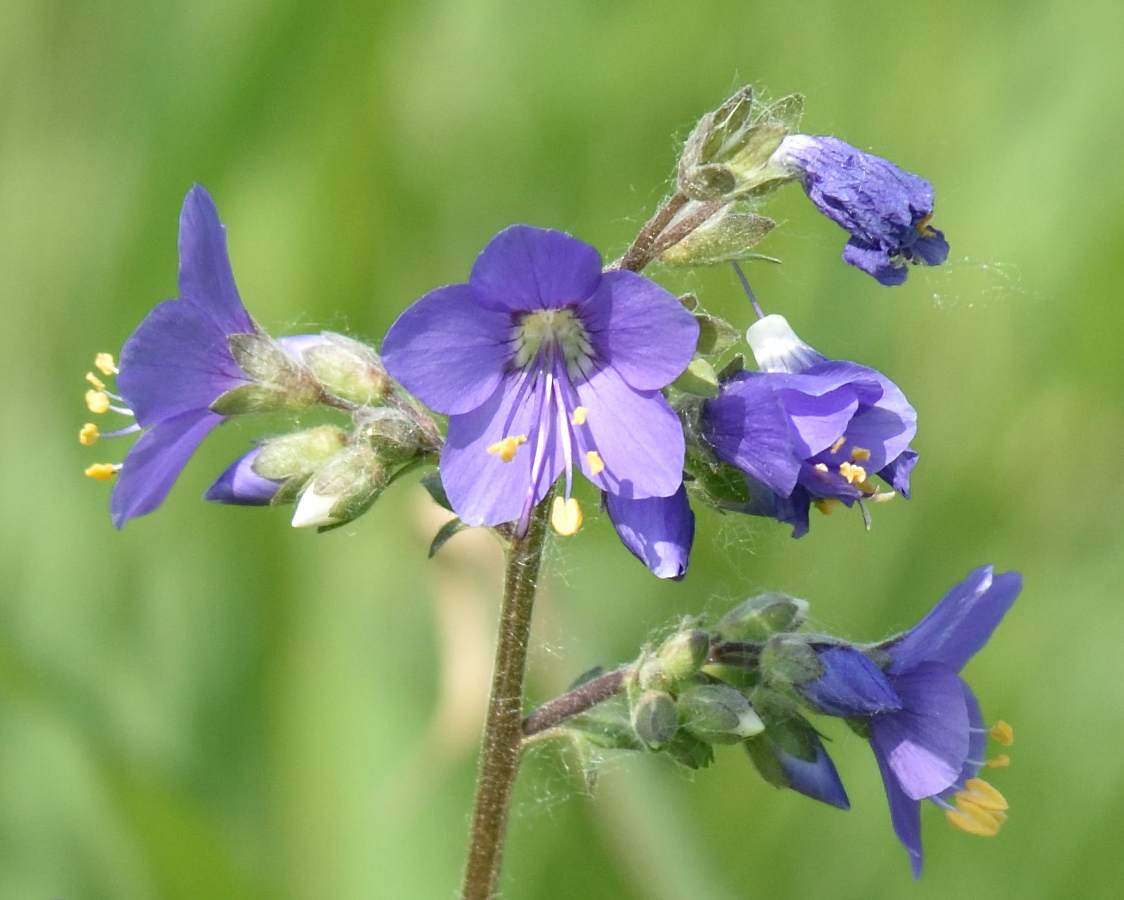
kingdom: Plantae
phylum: Tracheophyta
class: Magnoliopsida
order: Ericales
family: Polemoniaceae
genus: Polemonium
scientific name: Polemonium caeruleum
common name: Jacob's-ladder
